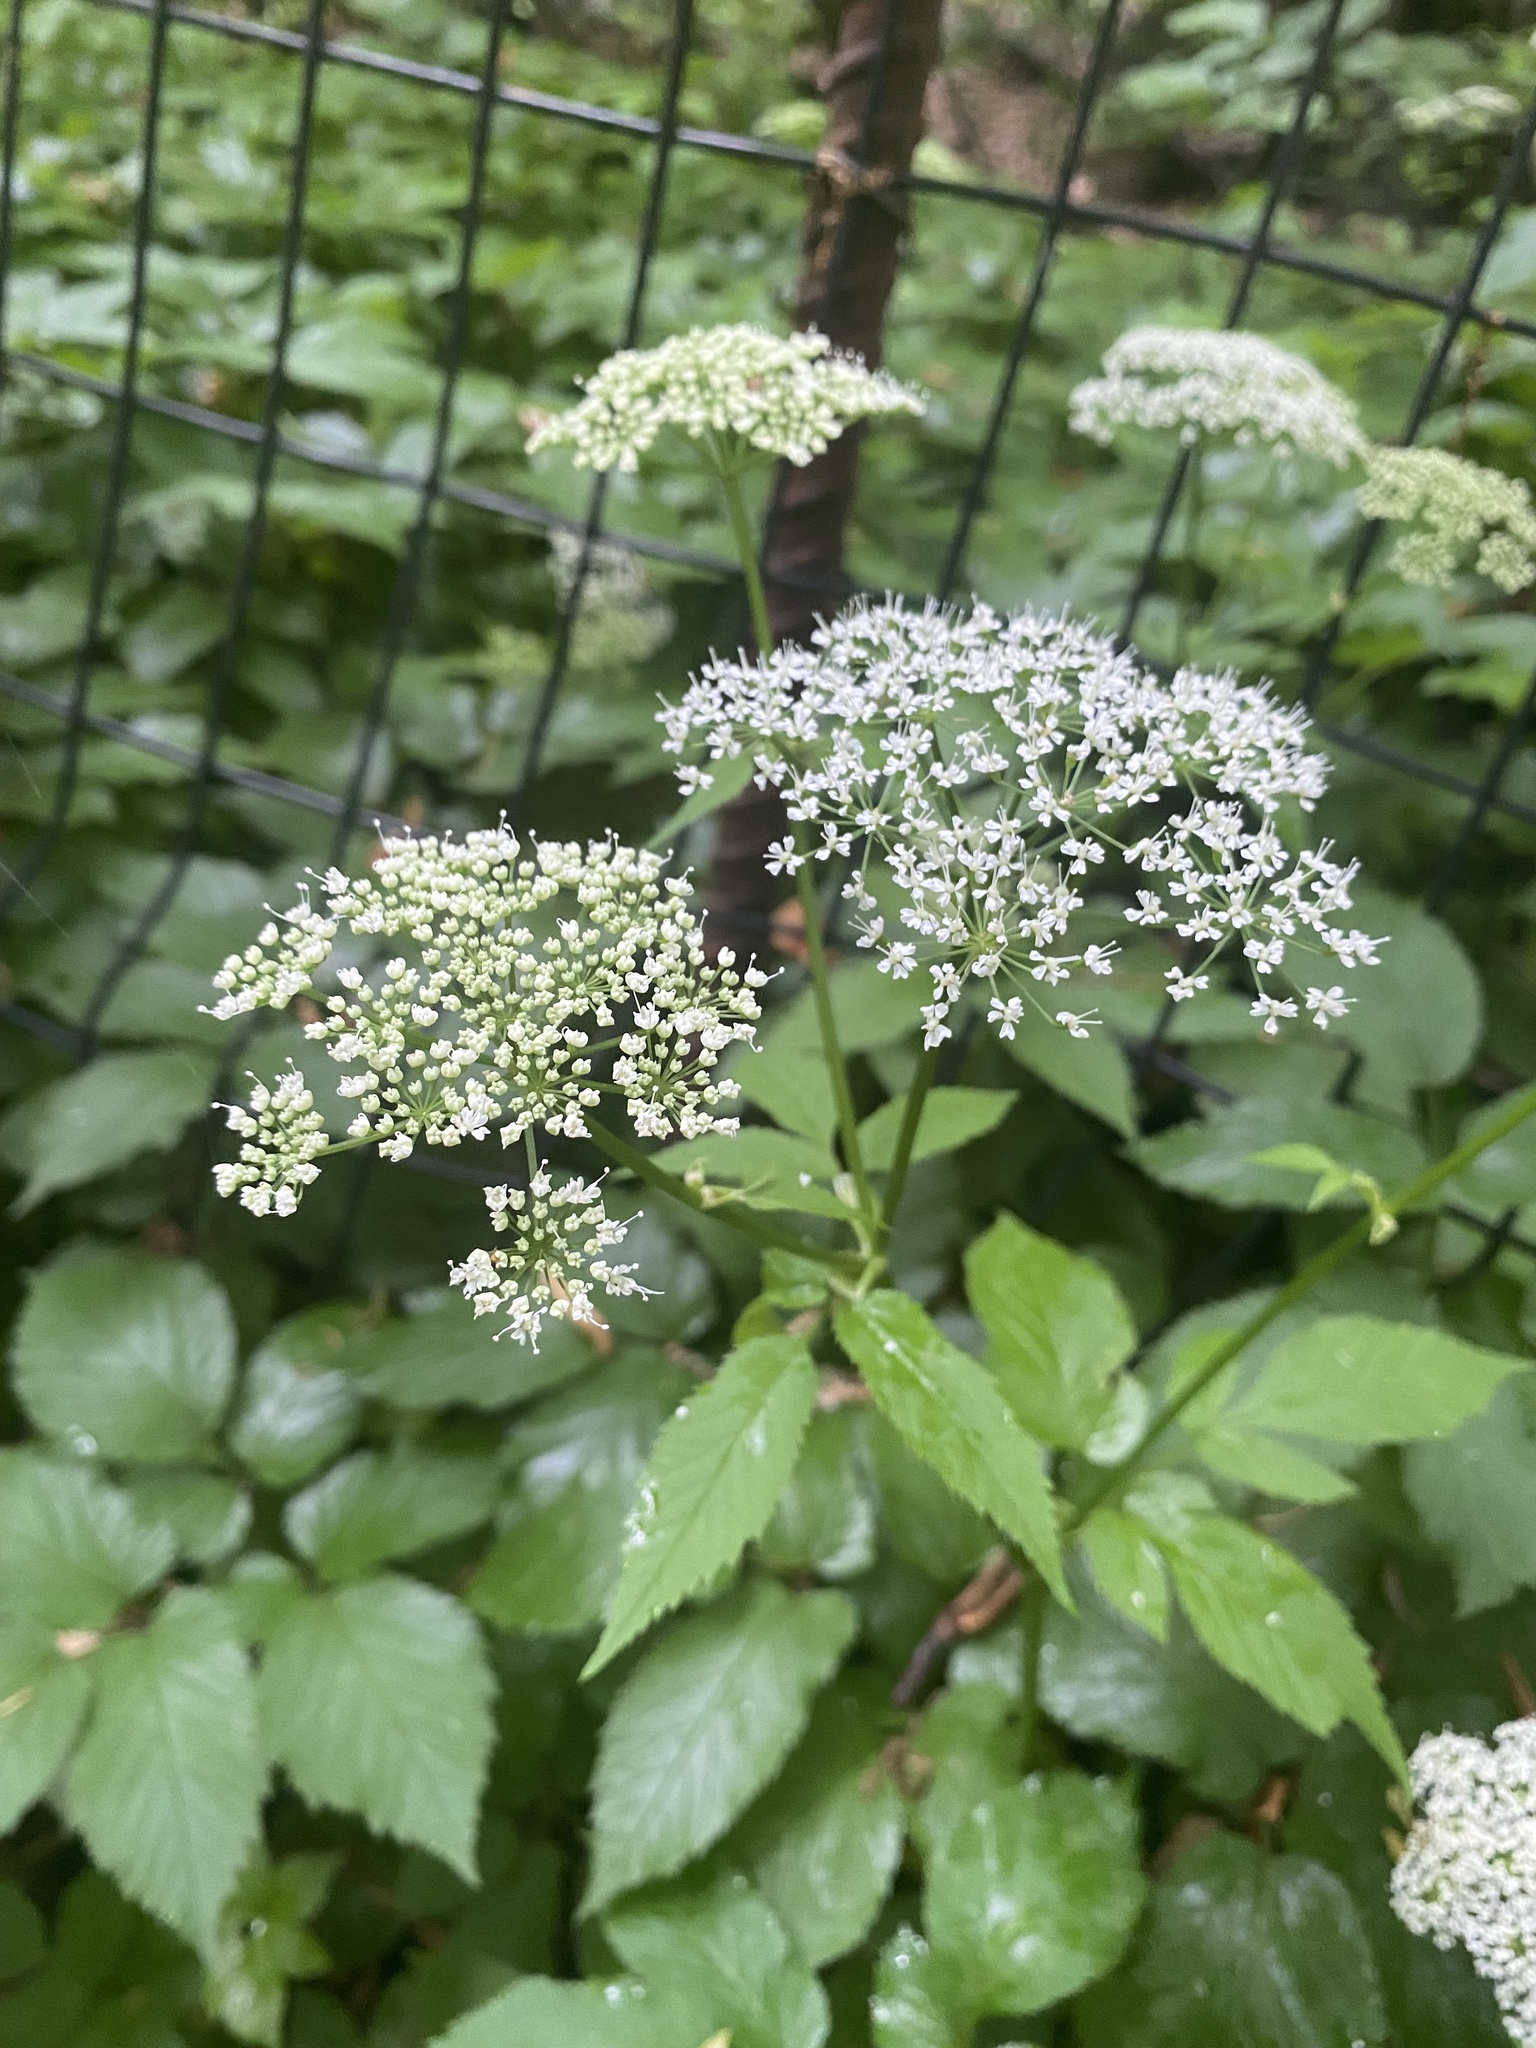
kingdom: Plantae
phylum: Tracheophyta
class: Magnoliopsida
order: Apiales
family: Apiaceae
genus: Aegopodium
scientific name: Aegopodium podagraria
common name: Ground-elder
